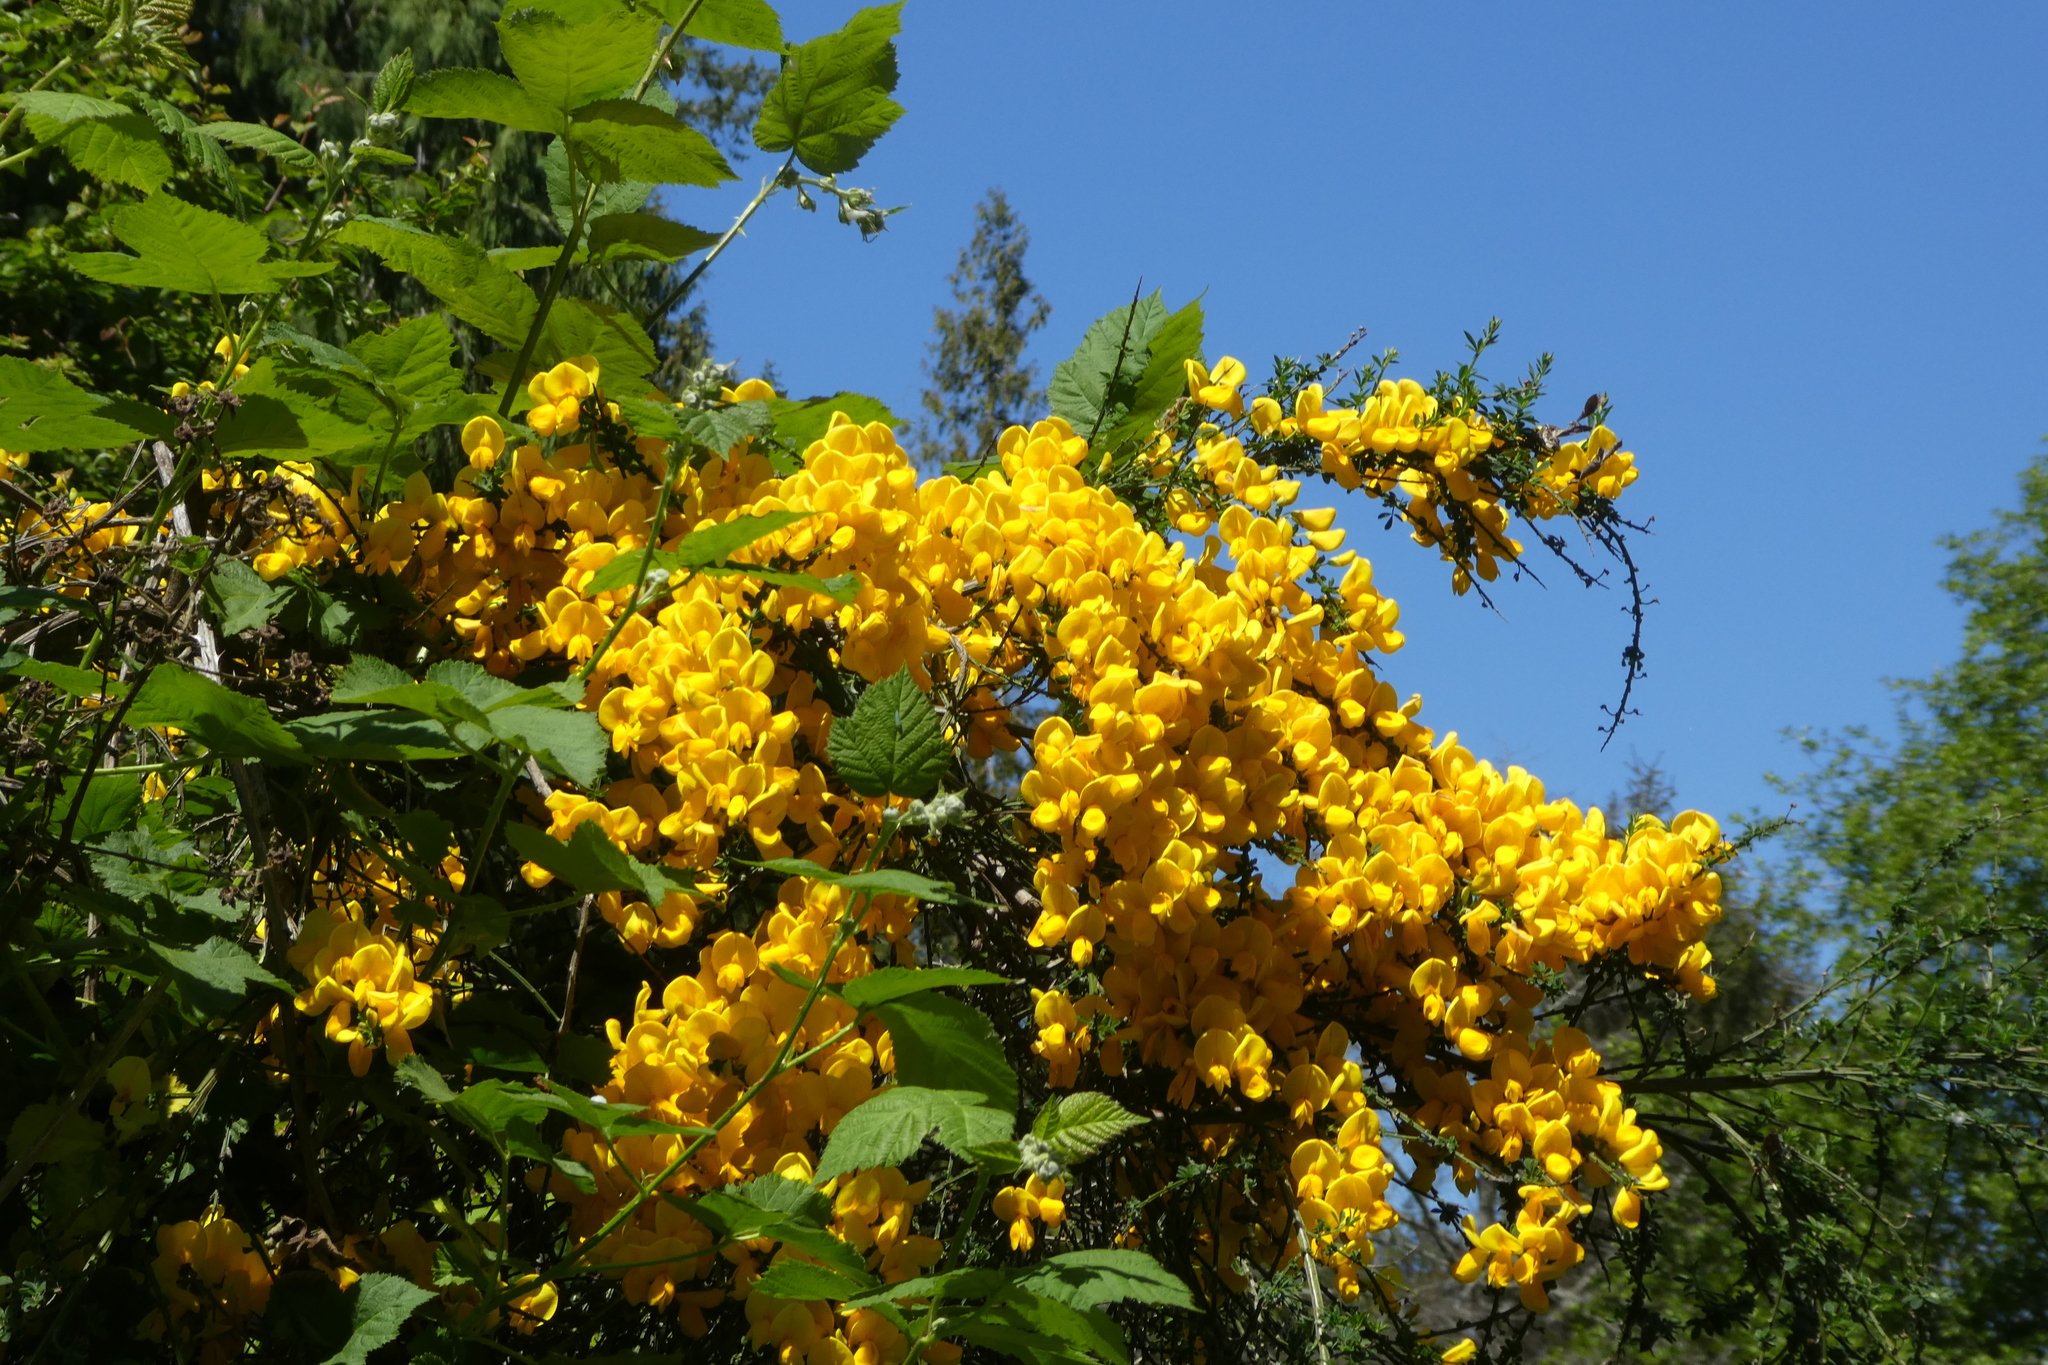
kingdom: Plantae
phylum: Tracheophyta
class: Magnoliopsida
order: Fabales
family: Fabaceae
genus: Cytisus
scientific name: Cytisus scoparius
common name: Scotch broom
